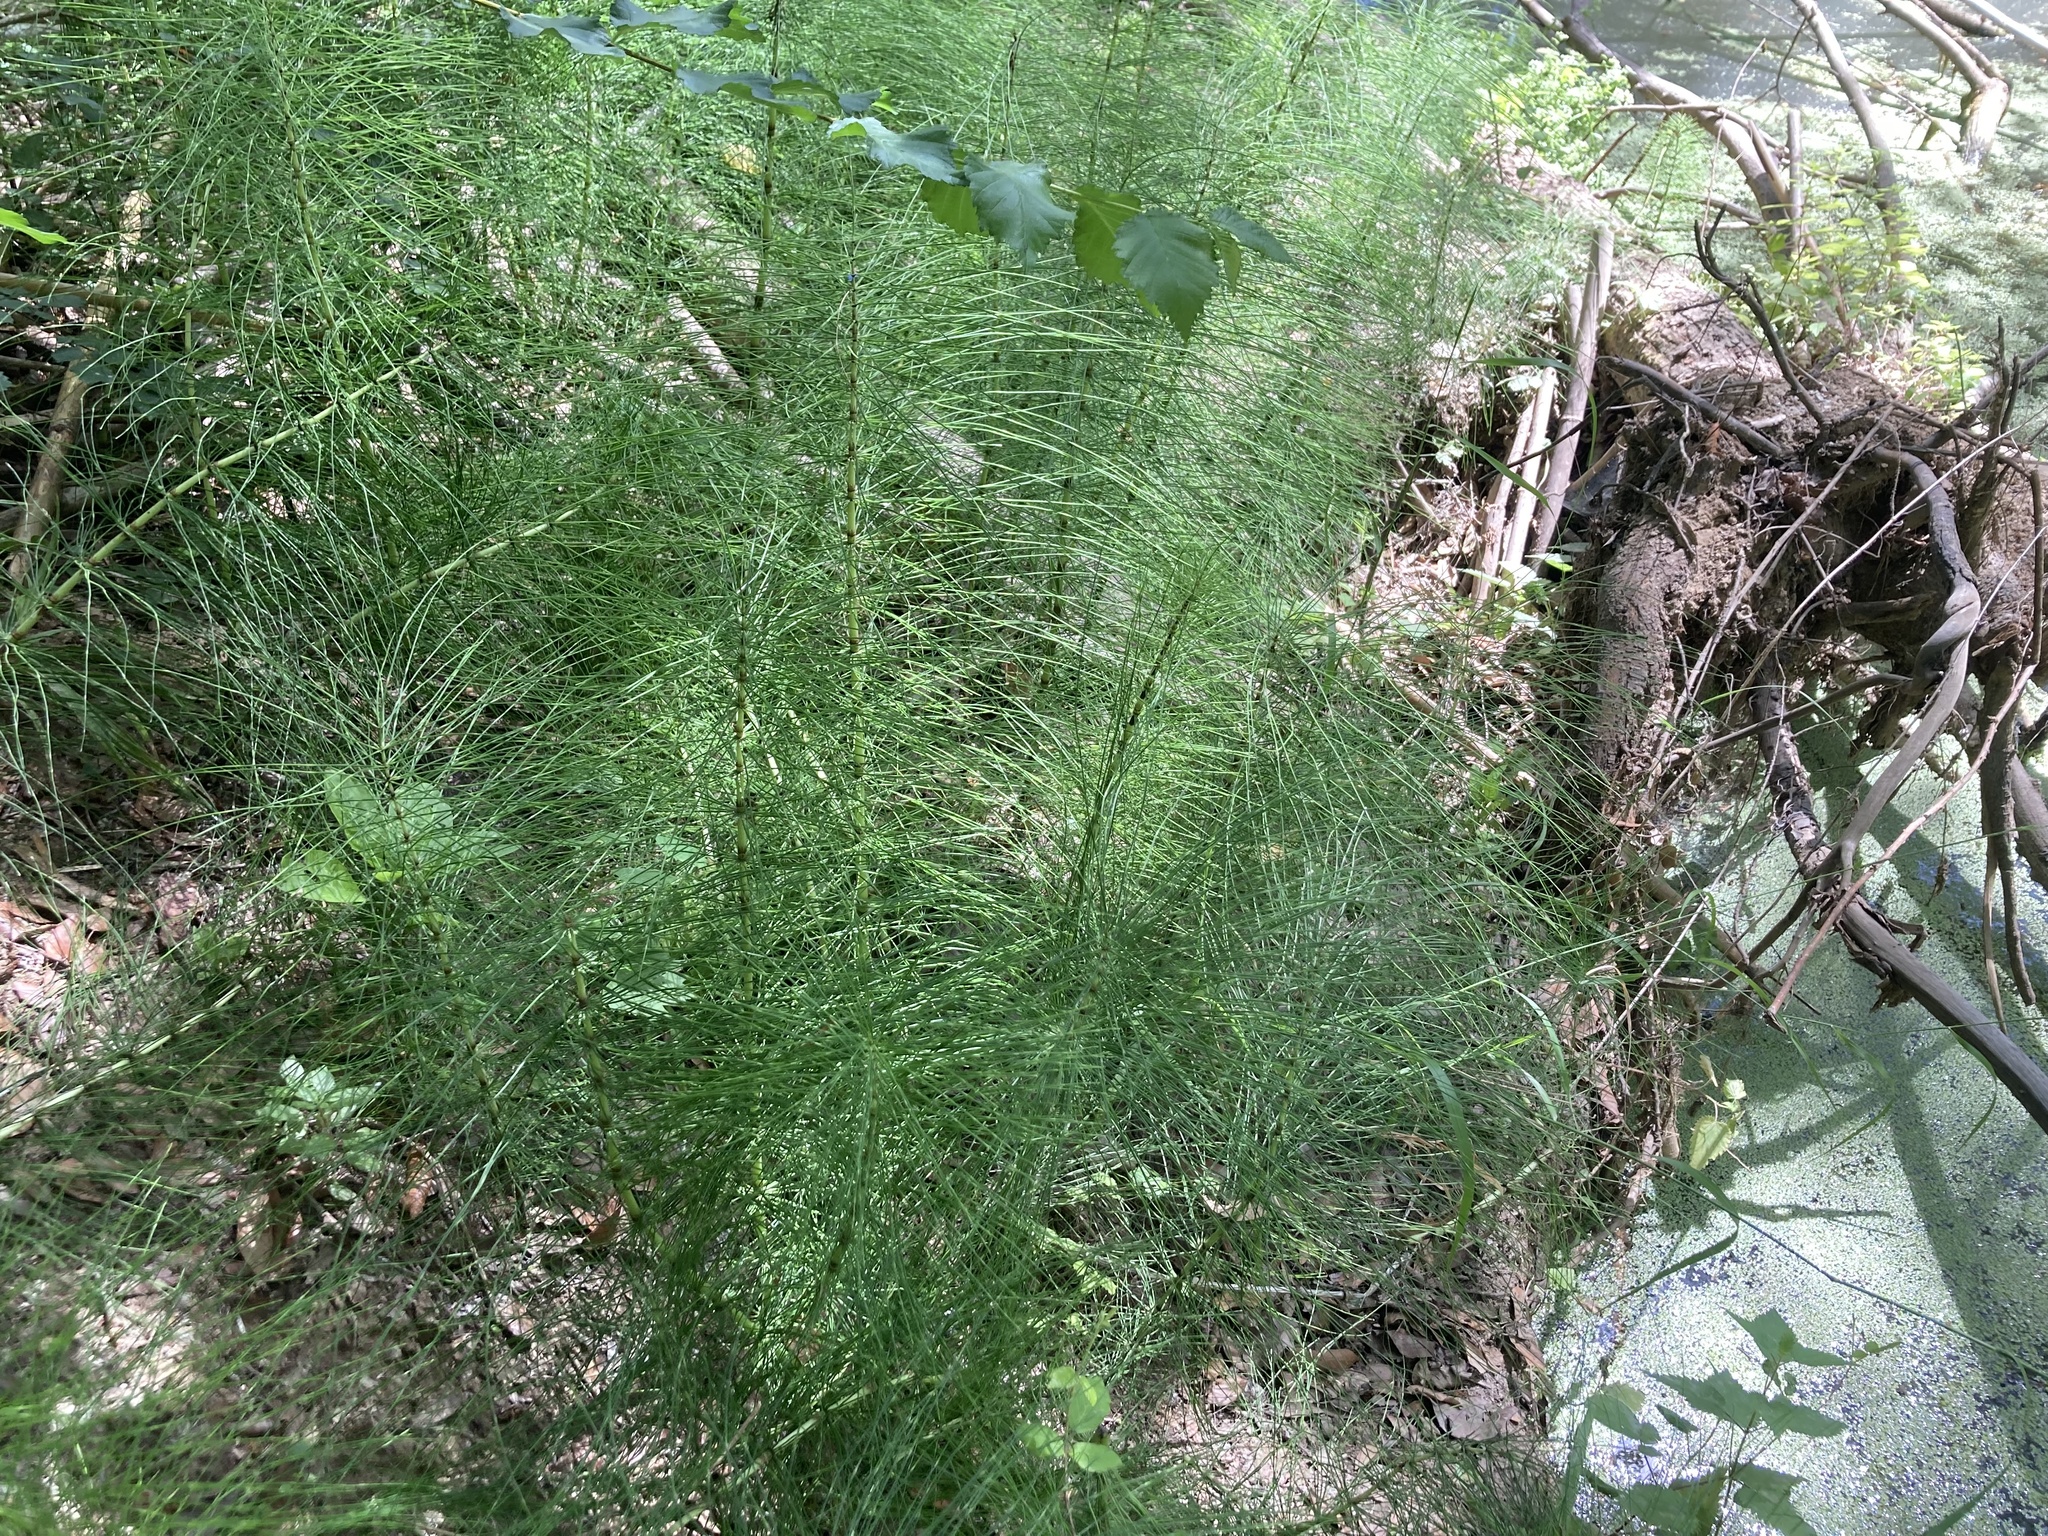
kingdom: Plantae
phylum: Tracheophyta
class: Polypodiopsida
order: Equisetales
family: Equisetaceae
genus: Equisetum
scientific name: Equisetum telmateia
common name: Great horsetail
